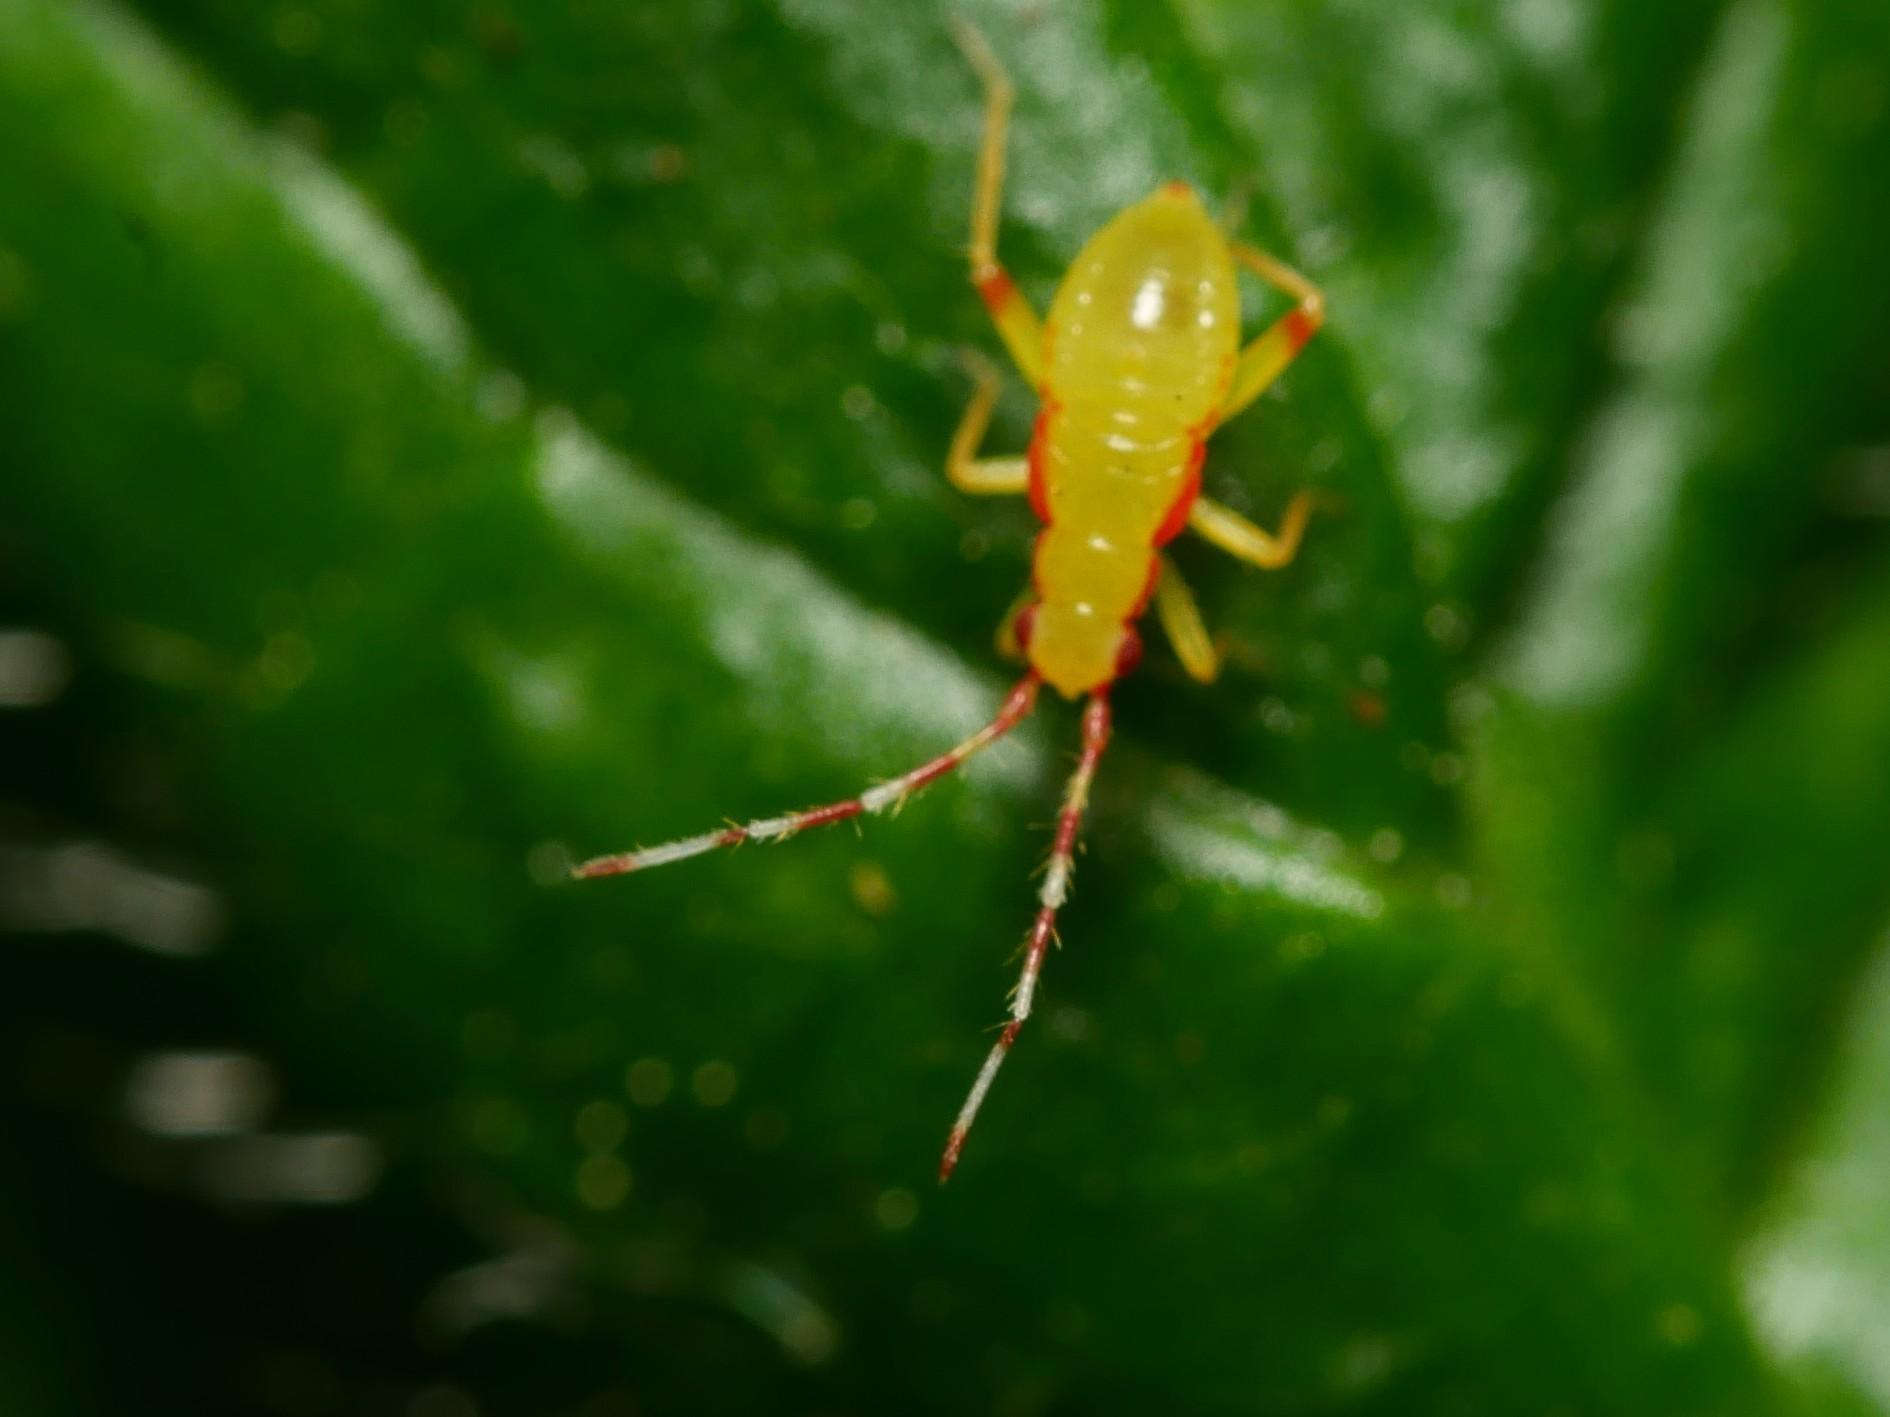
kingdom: Animalia
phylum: Arthropoda
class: Insecta
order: Hemiptera
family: Miridae
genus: Campyloneura
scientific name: Campyloneura virgula
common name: Predatory bug
